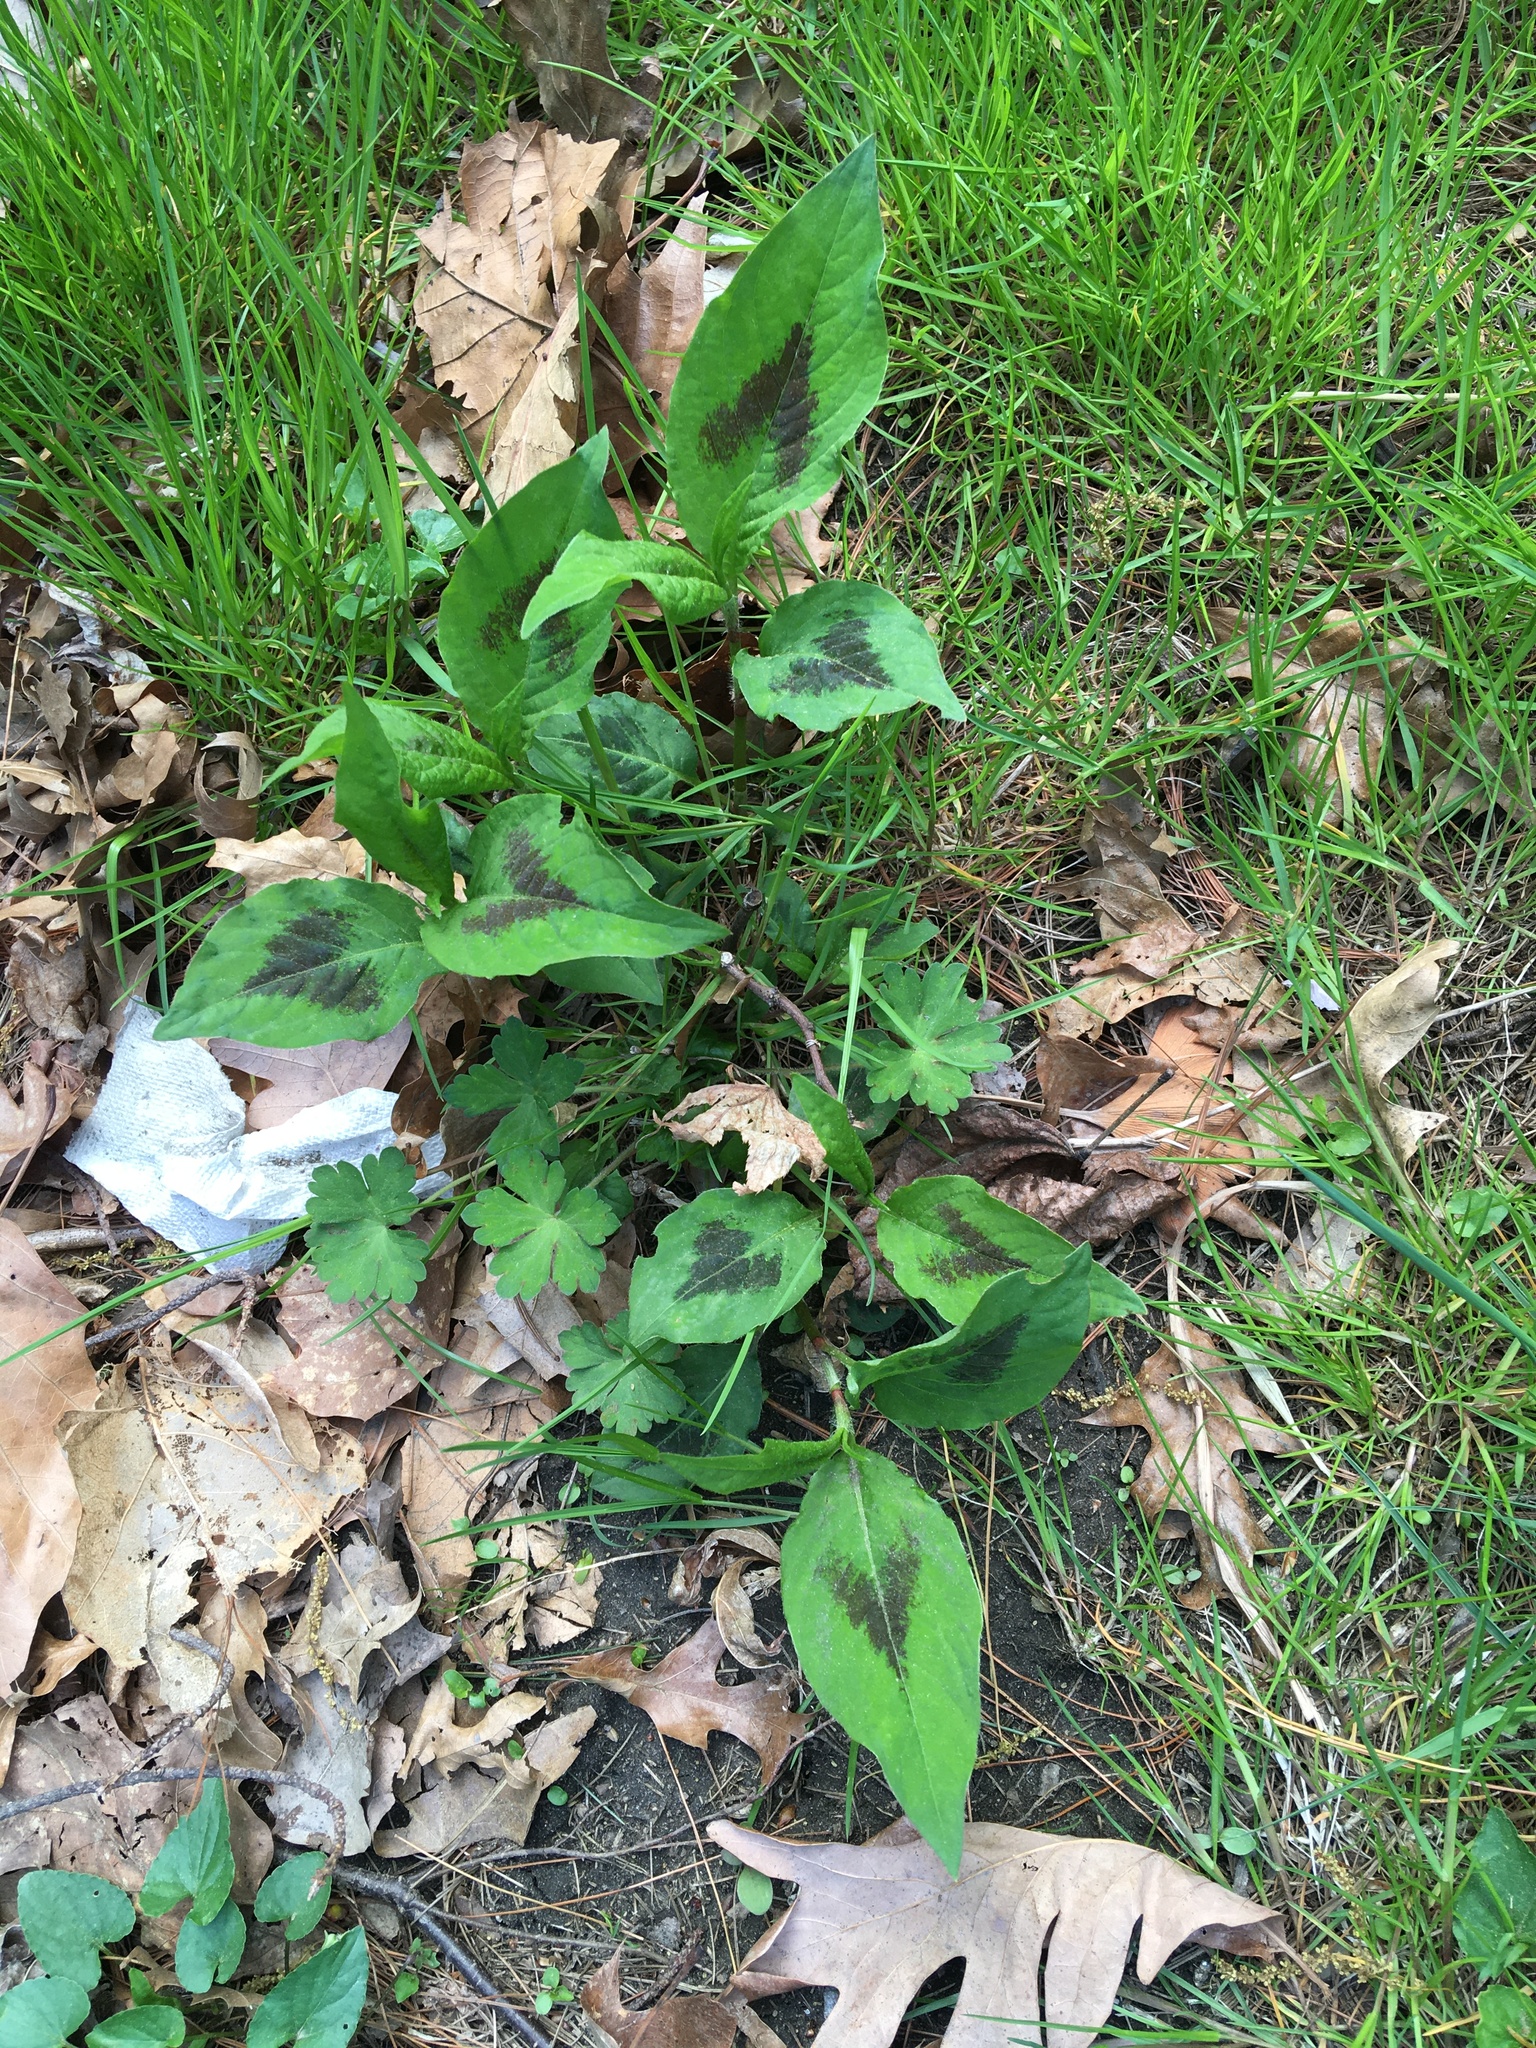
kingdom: Plantae
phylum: Tracheophyta
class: Magnoliopsida
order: Caryophyllales
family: Polygonaceae
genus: Persicaria
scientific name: Persicaria virginiana
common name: Jumpseed
